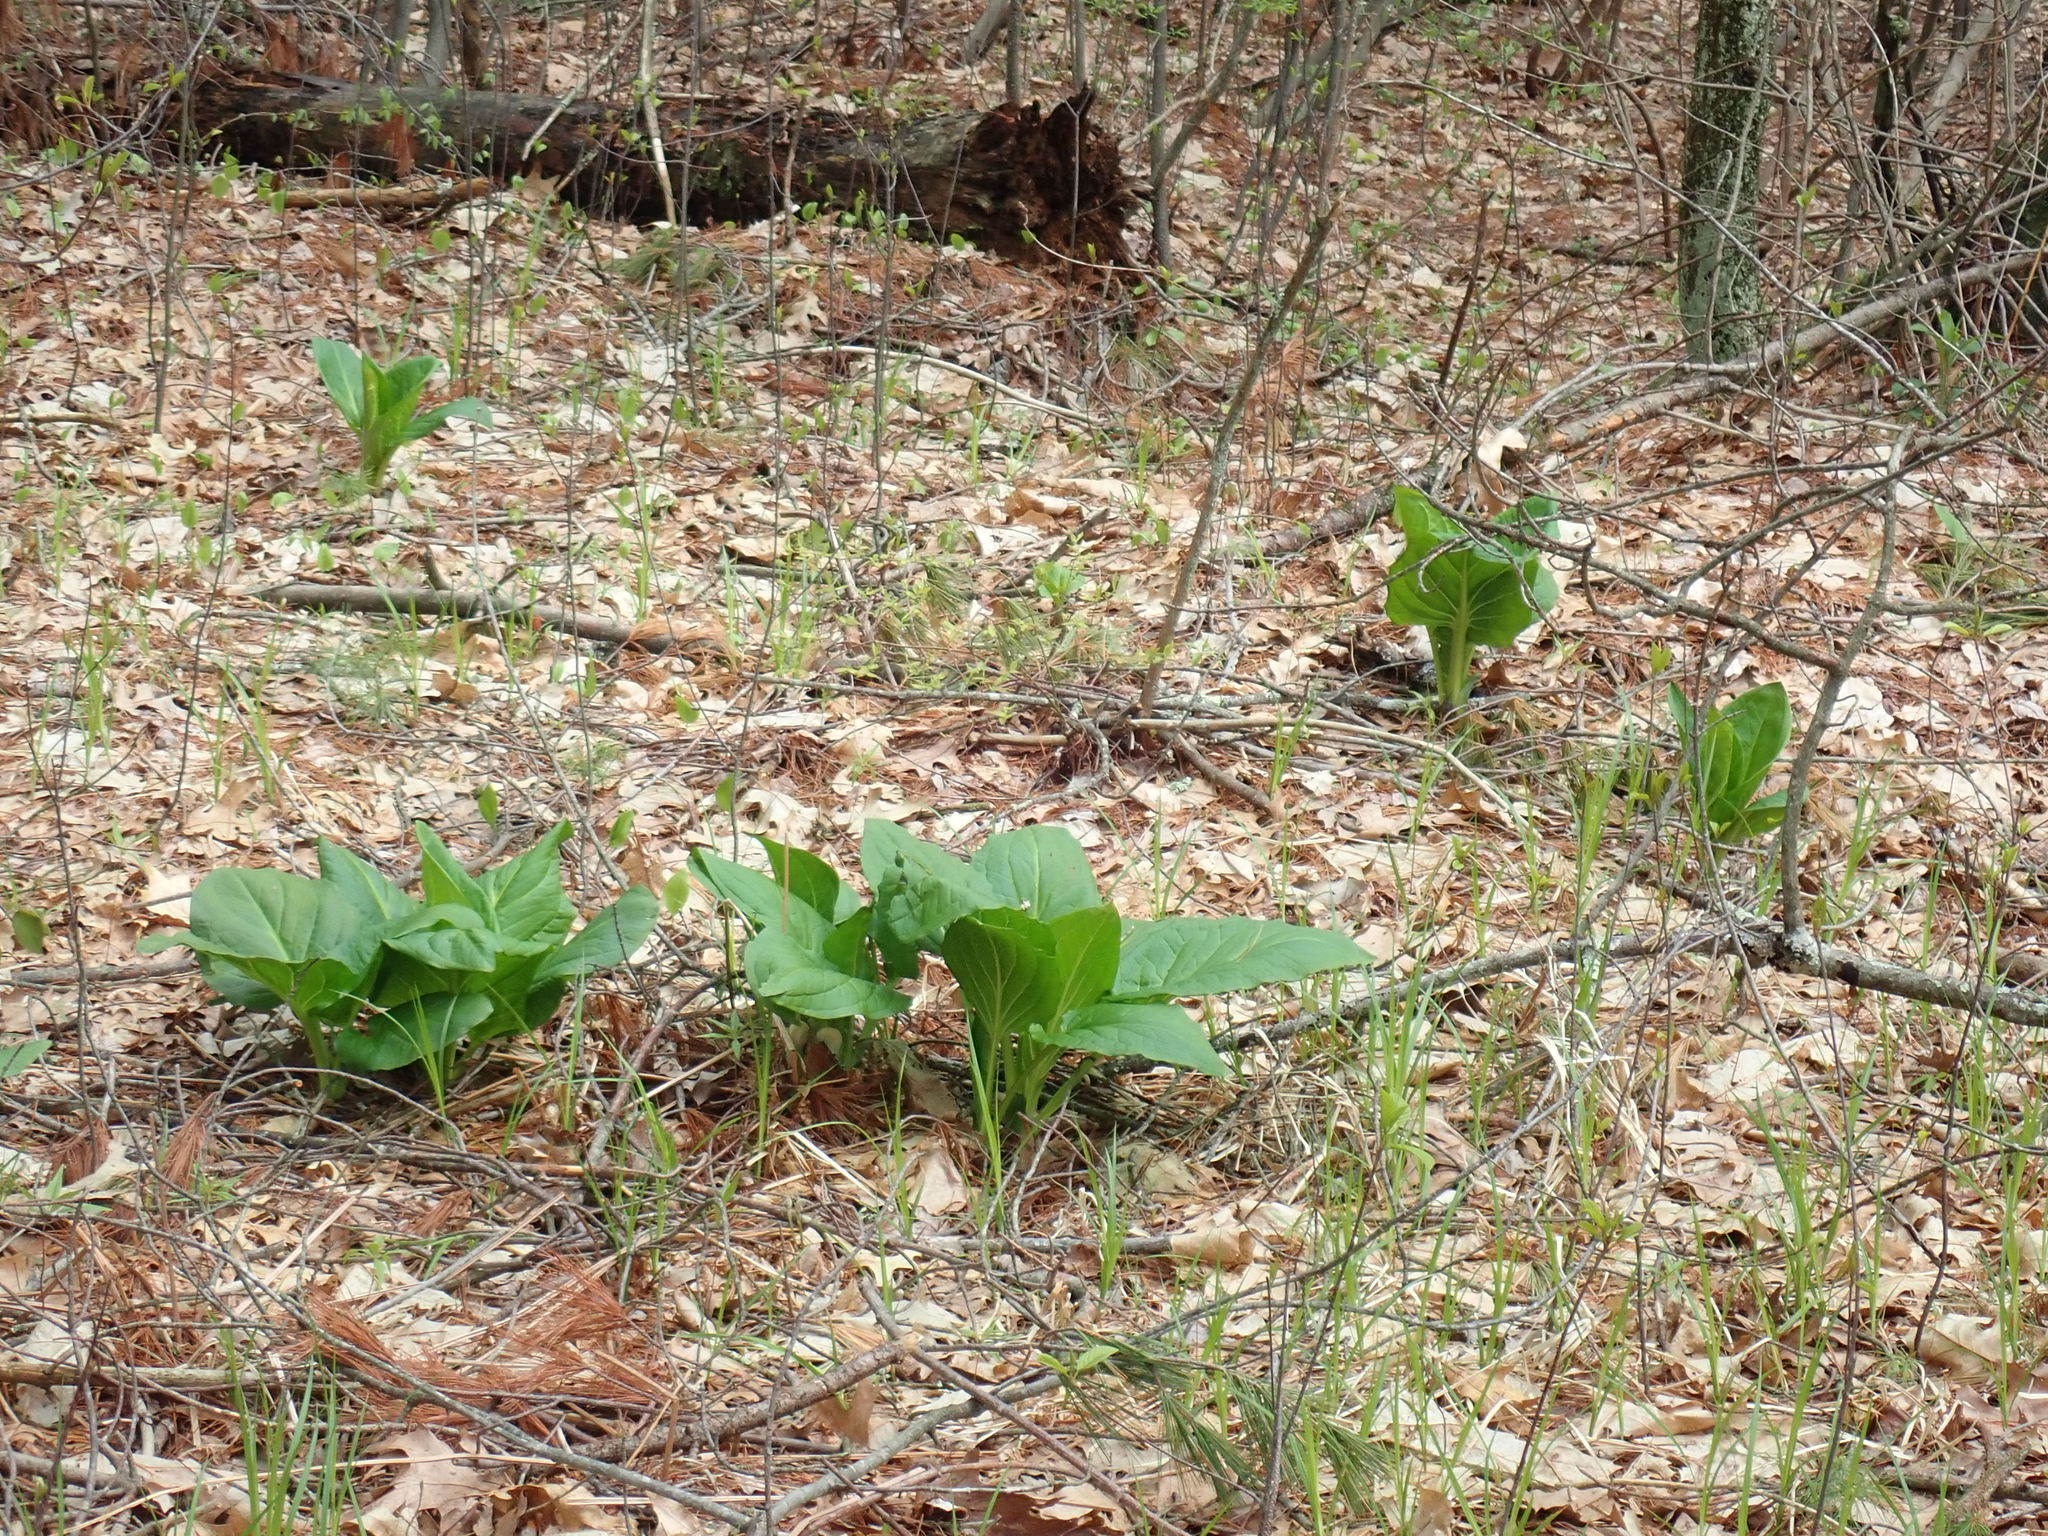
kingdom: Plantae
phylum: Tracheophyta
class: Liliopsida
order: Alismatales
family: Araceae
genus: Symplocarpus
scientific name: Symplocarpus foetidus
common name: Eastern skunk cabbage
